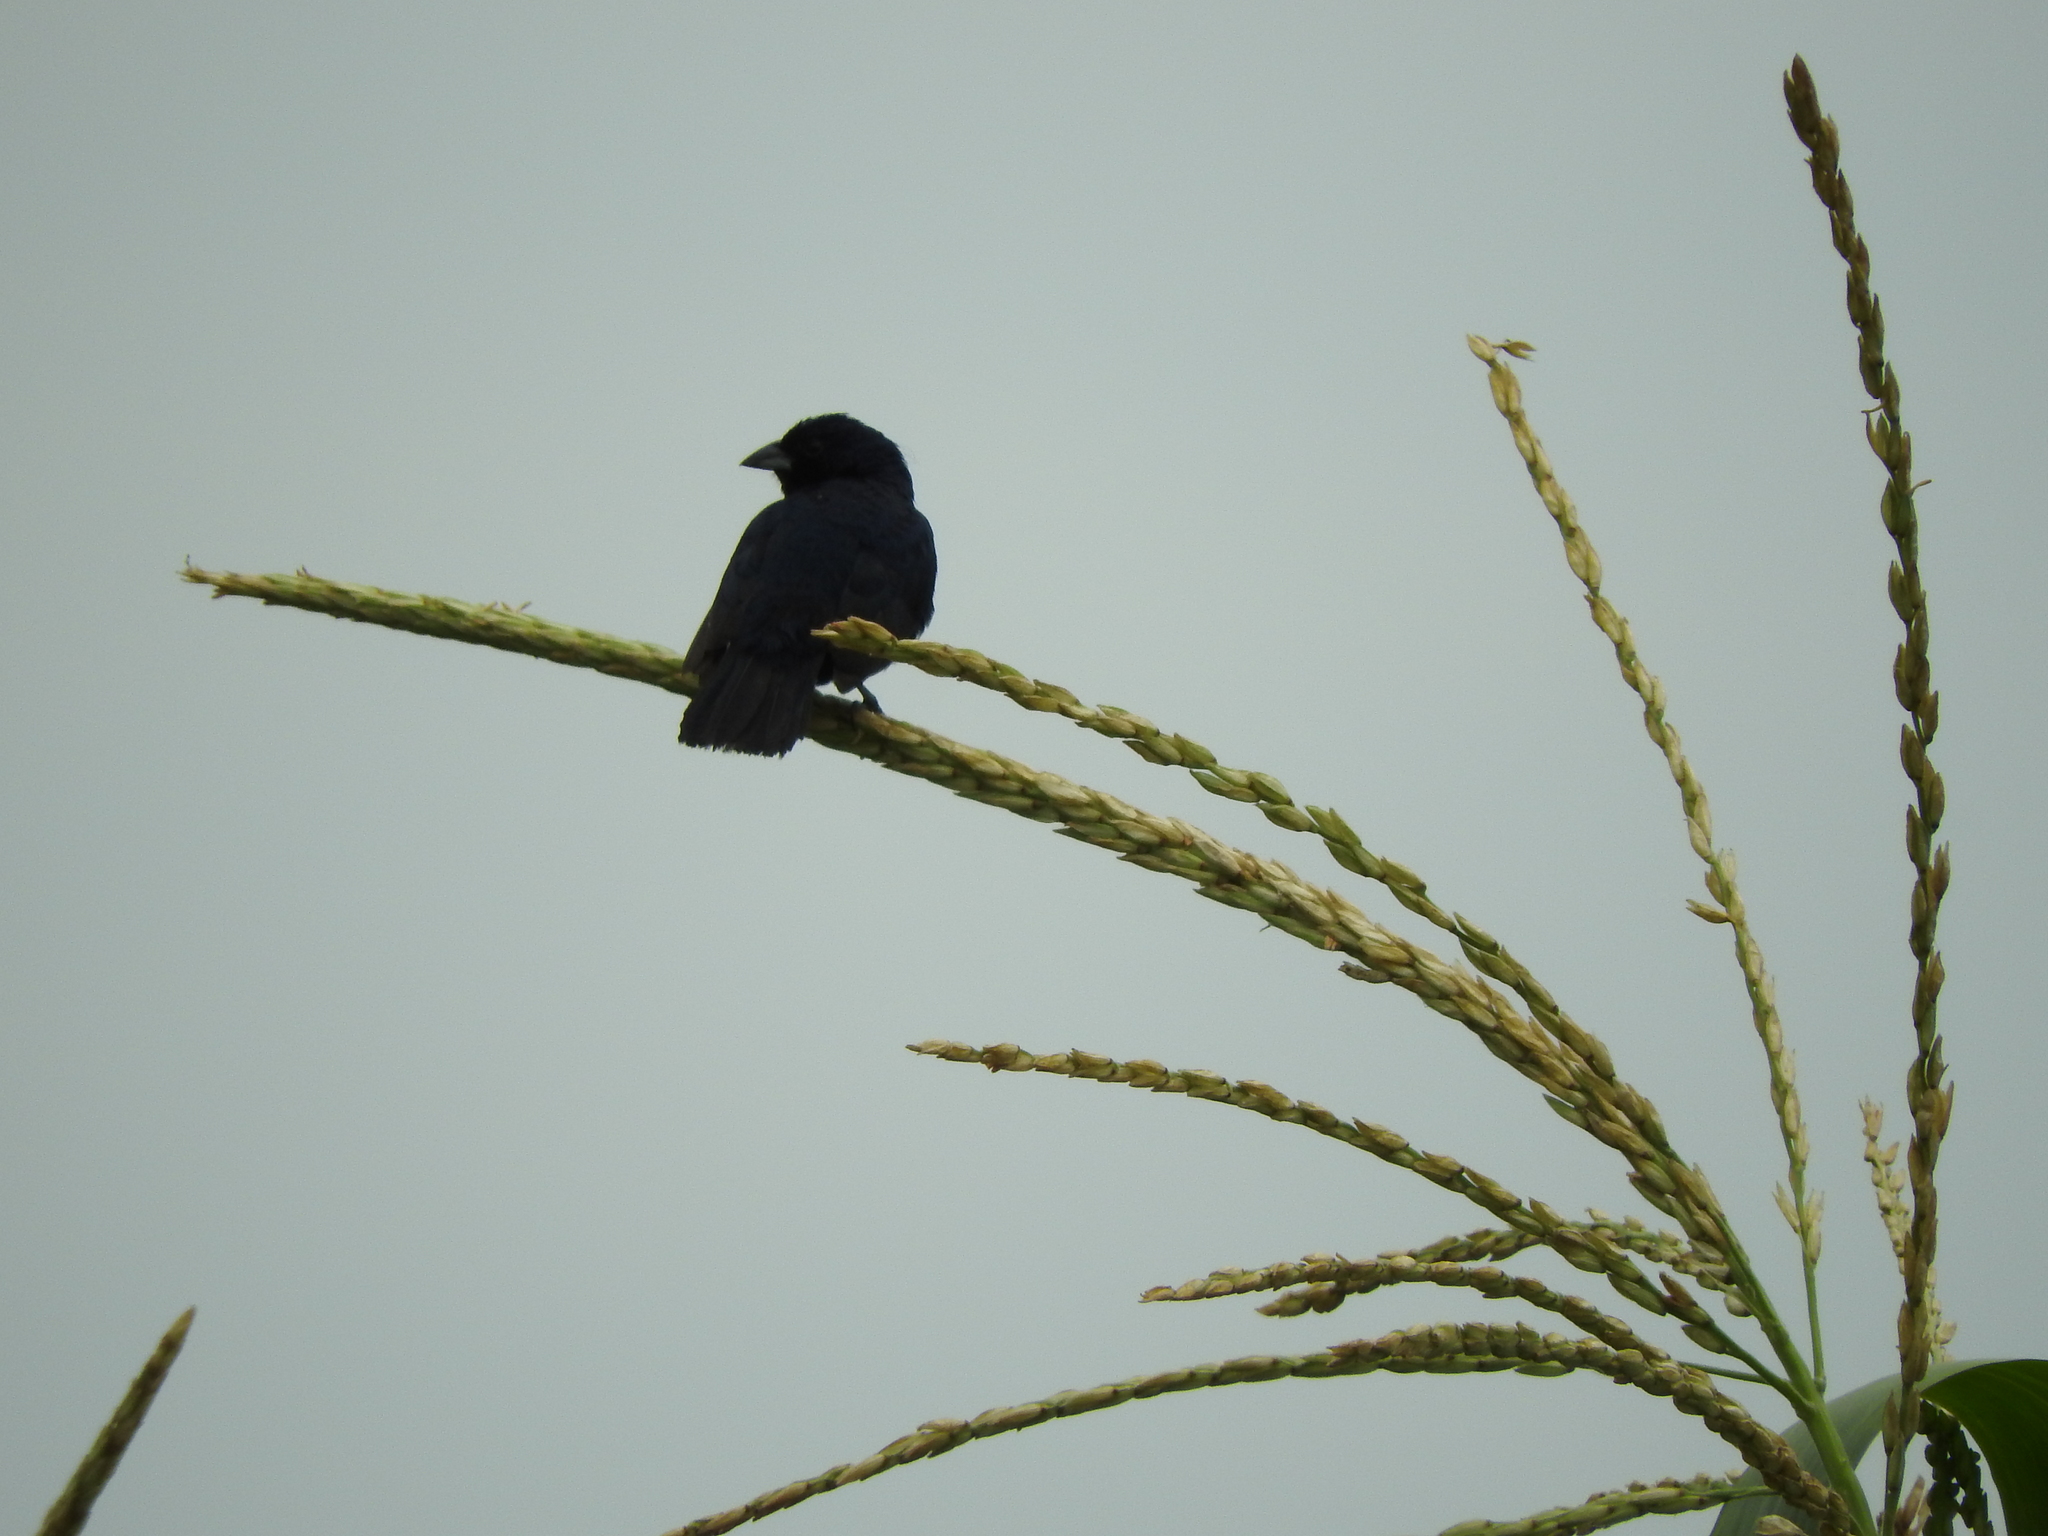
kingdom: Animalia
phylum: Chordata
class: Aves
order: Passeriformes
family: Thraupidae
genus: Volatinia
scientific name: Volatinia jacarina
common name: Blue-black grassquit
